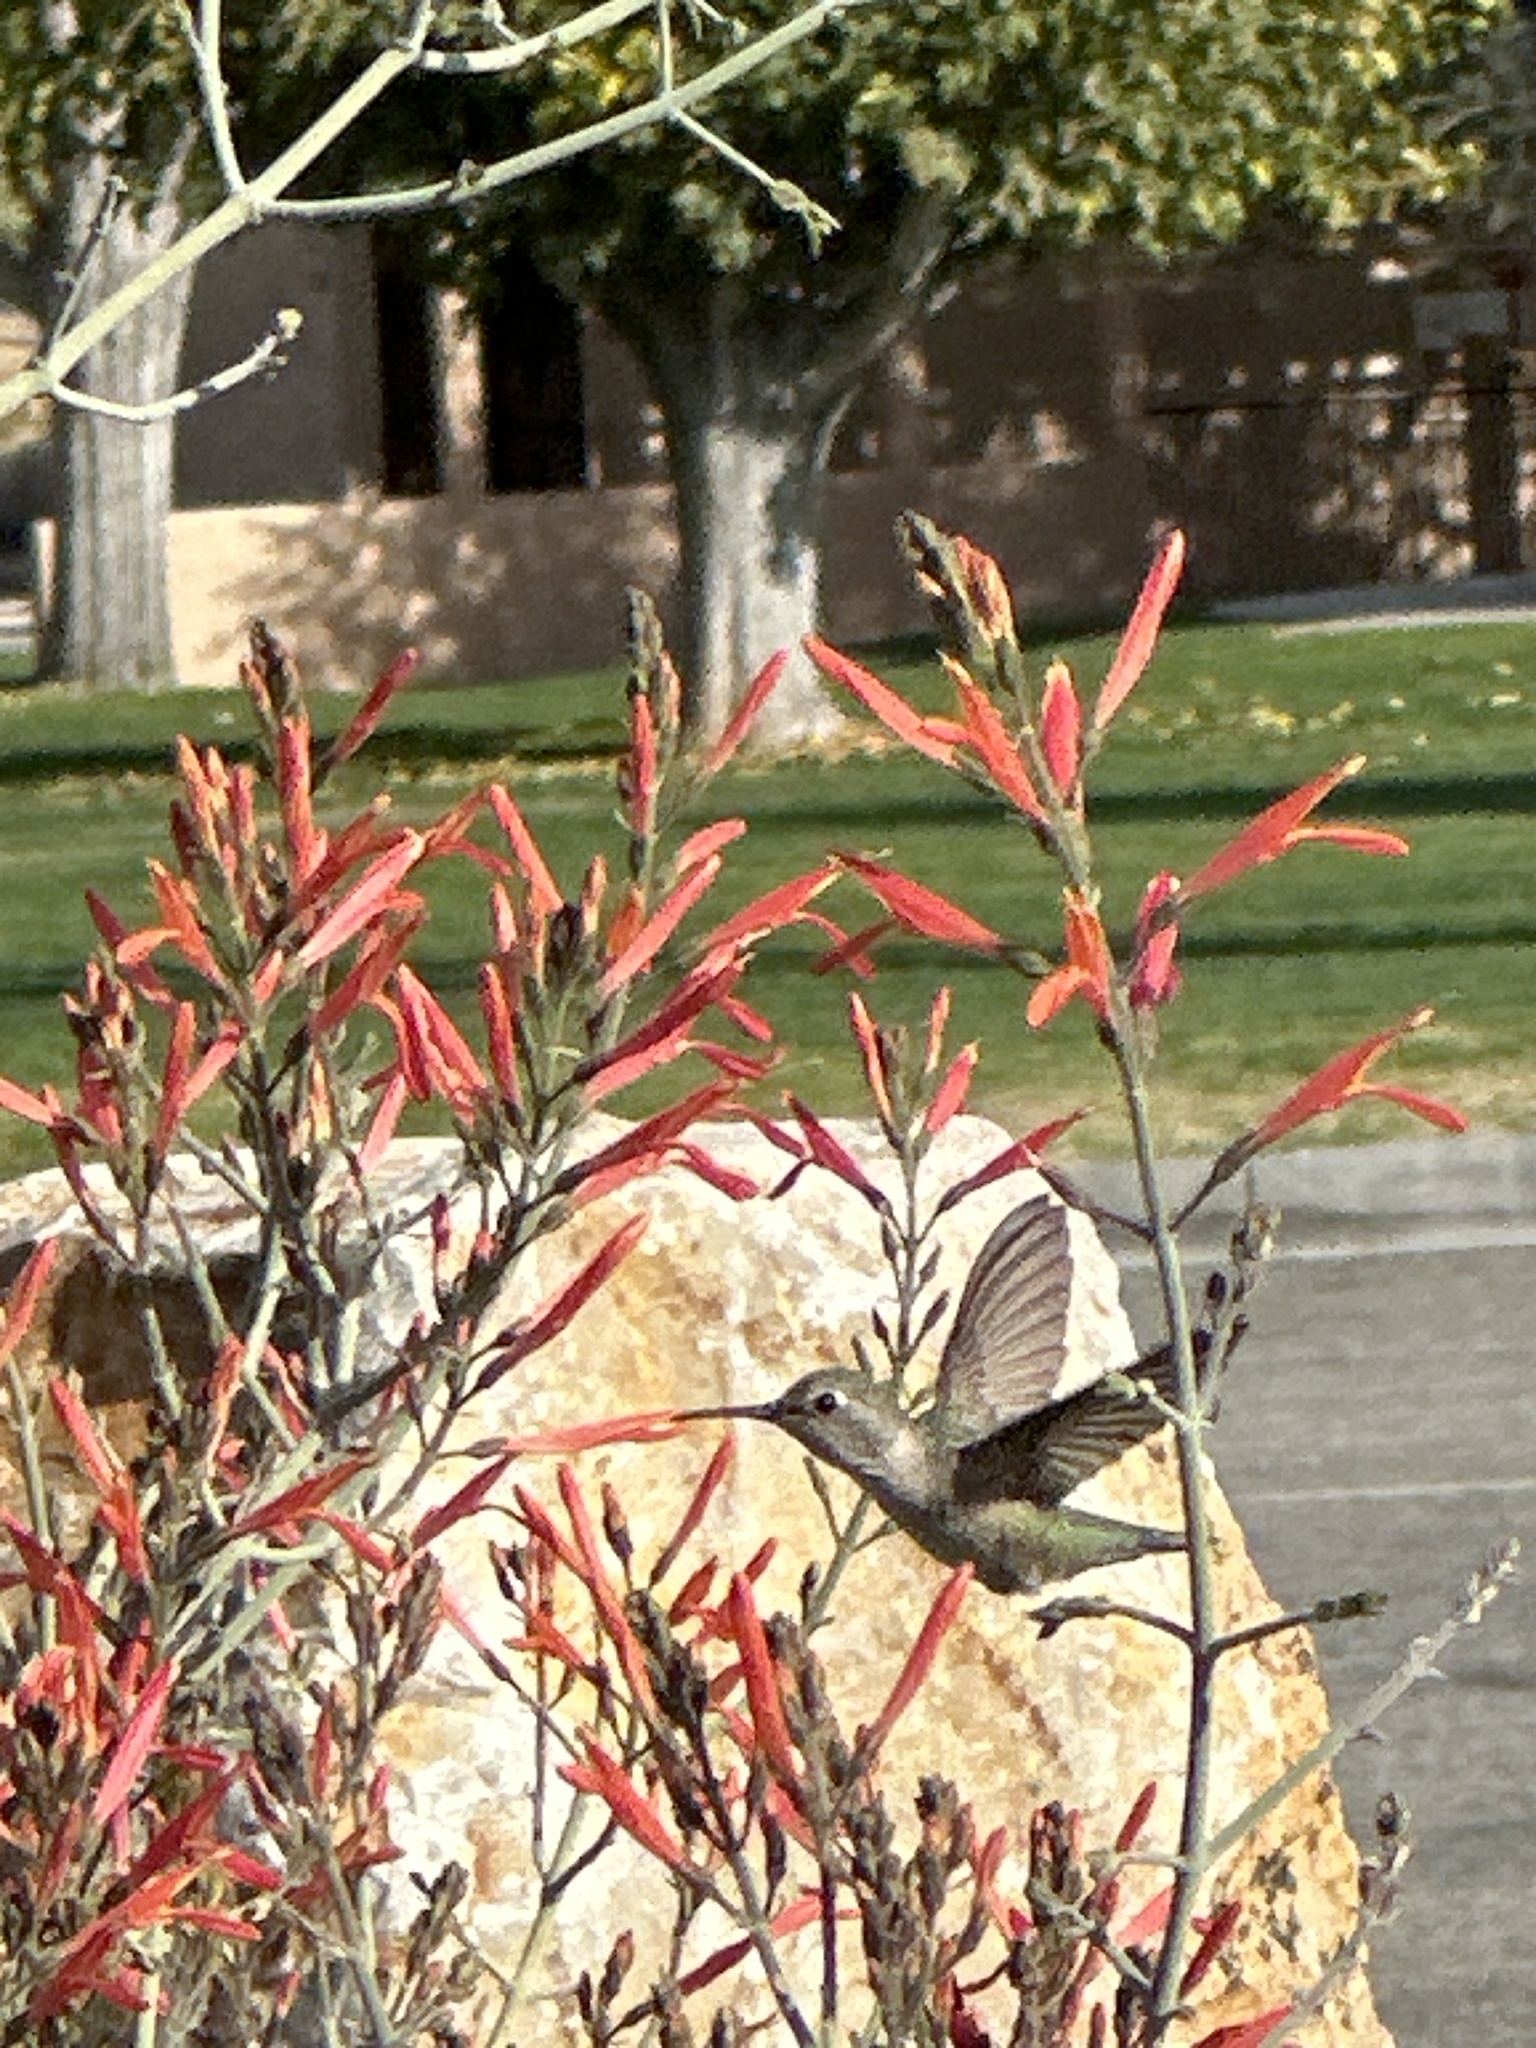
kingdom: Animalia
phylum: Chordata
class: Aves
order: Apodiformes
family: Trochilidae
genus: Calypte
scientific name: Calypte anna
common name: Anna's hummingbird
